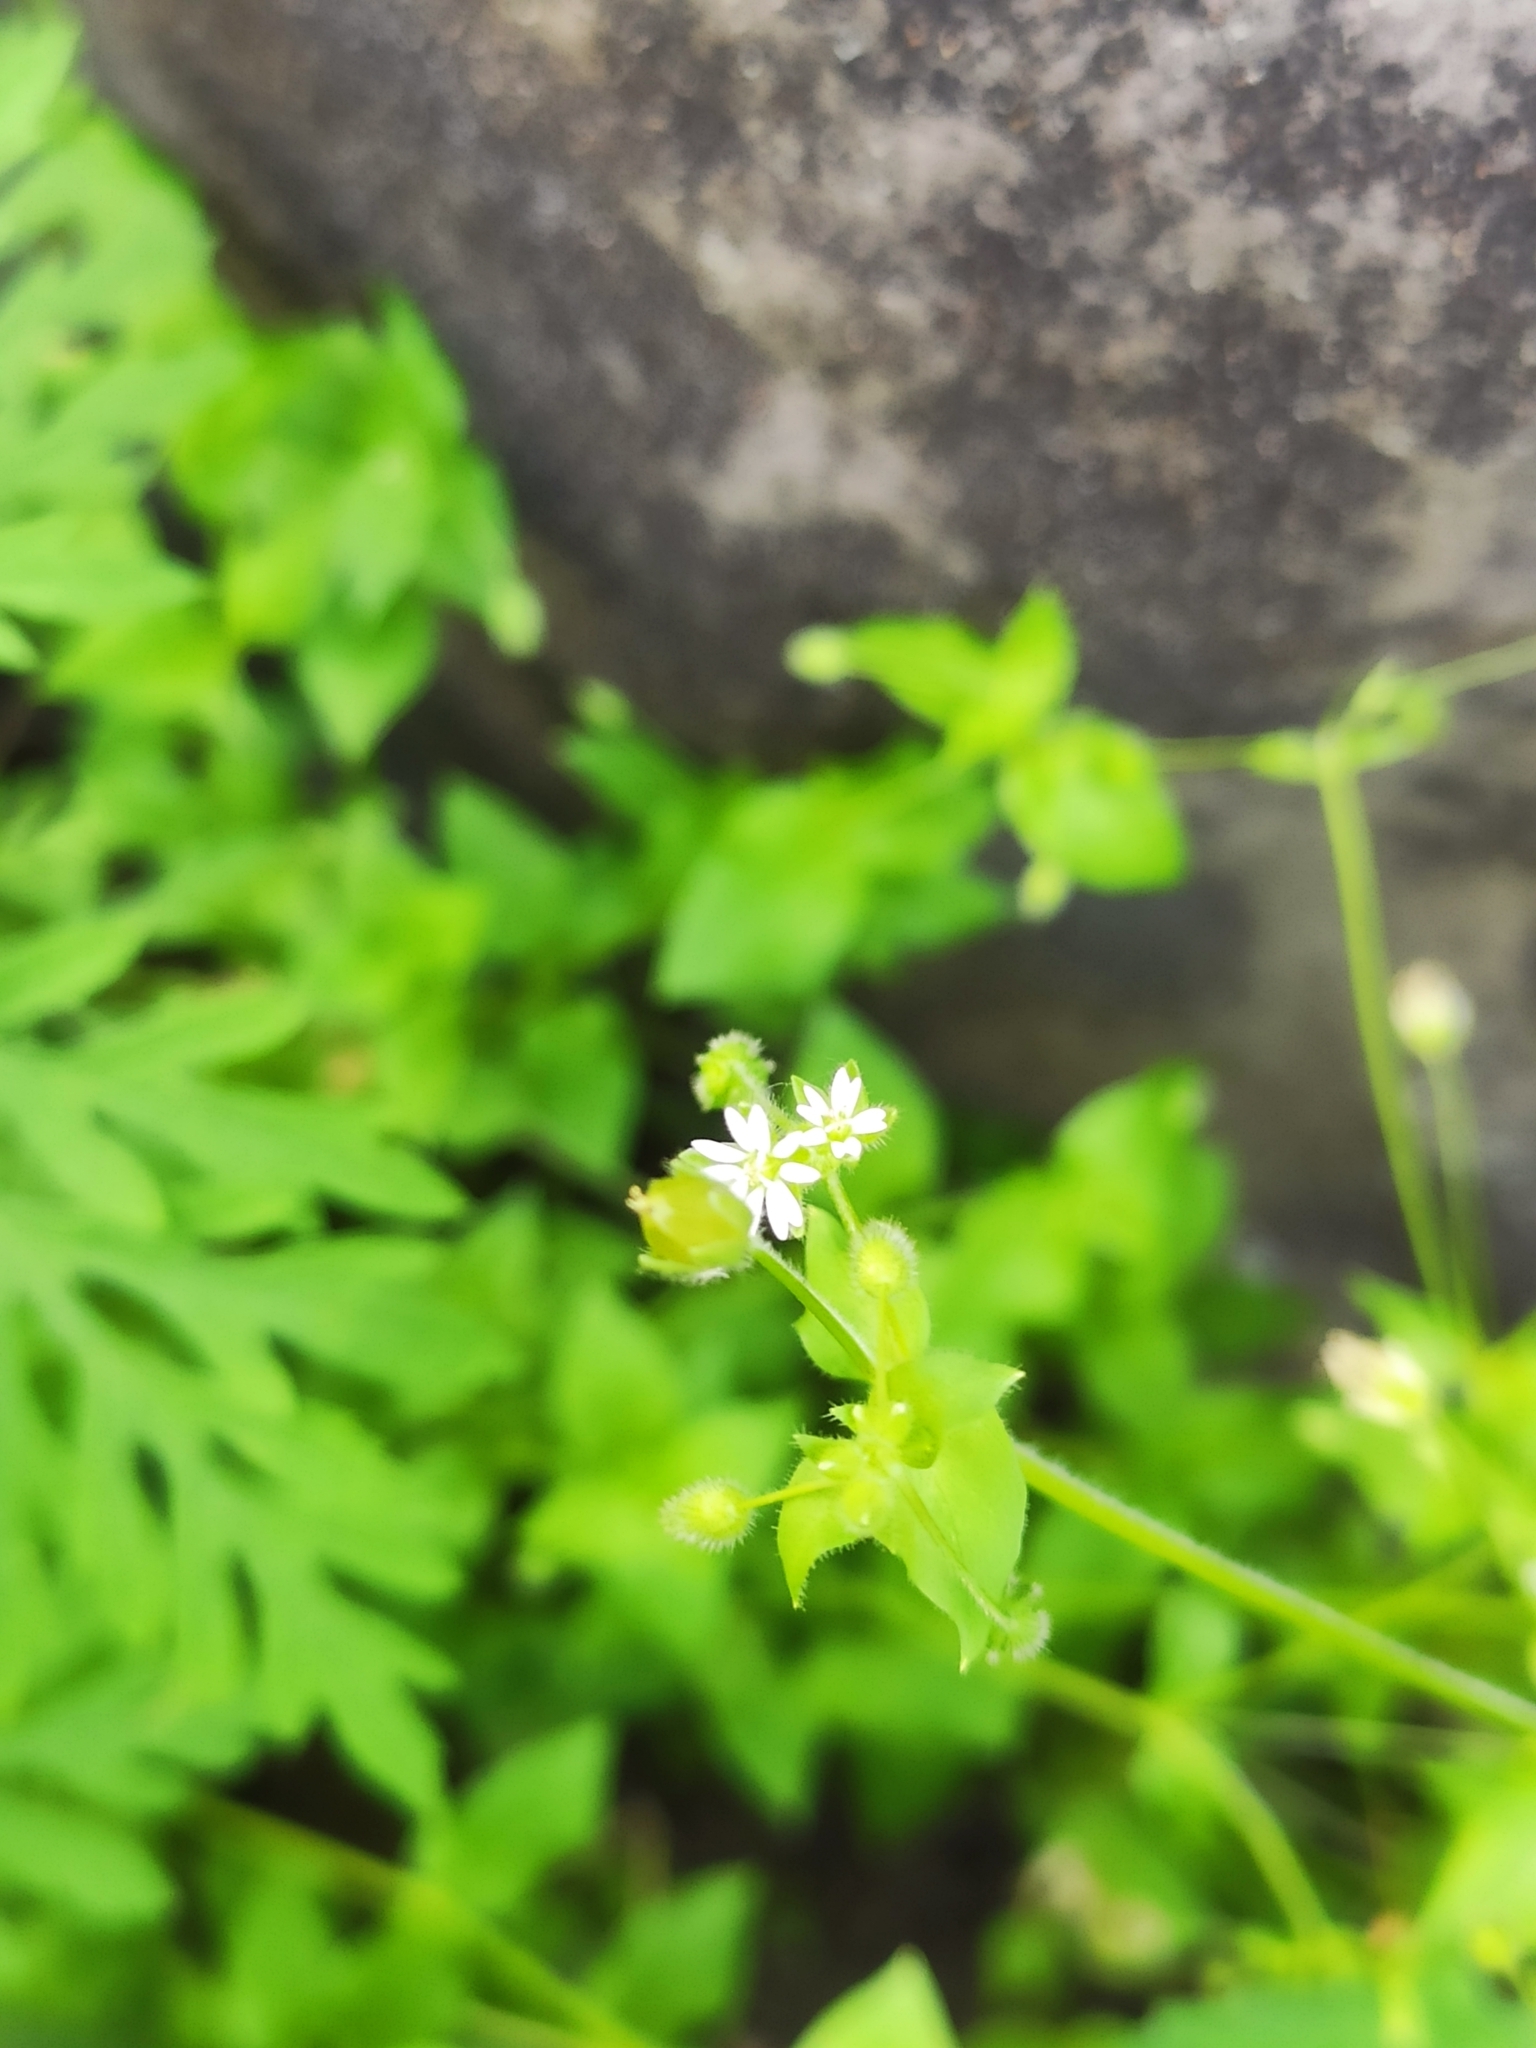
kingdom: Plantae
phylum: Tracheophyta
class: Magnoliopsida
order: Caryophyllales
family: Caryophyllaceae
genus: Stellaria
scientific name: Stellaria media
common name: Common chickweed
